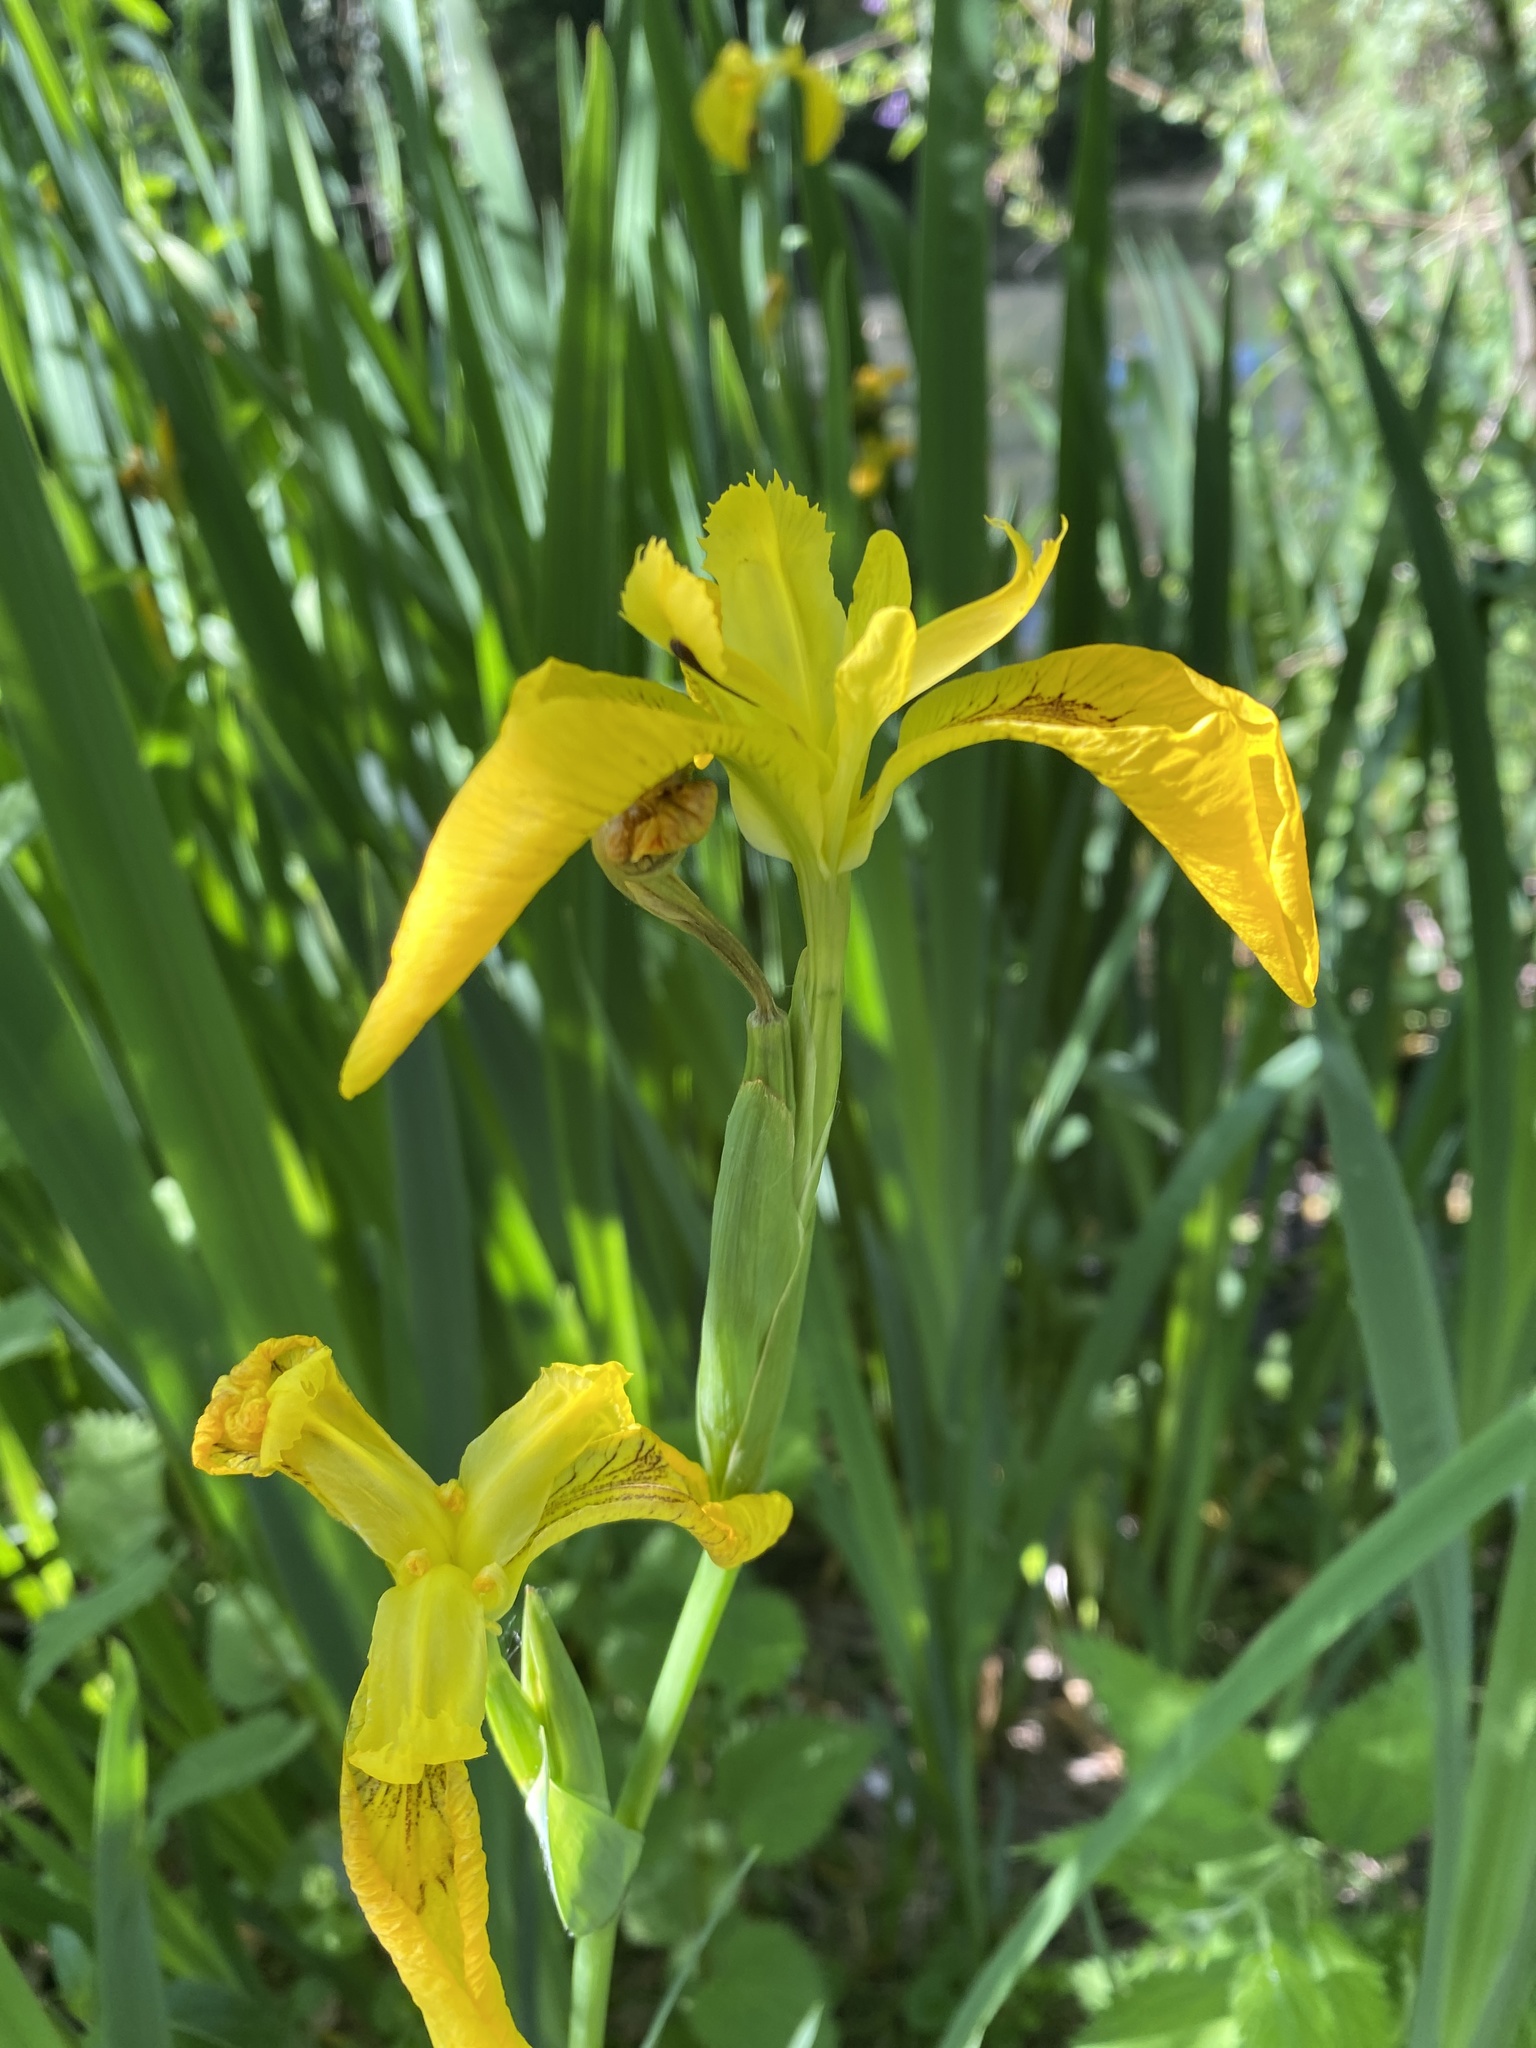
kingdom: Plantae
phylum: Tracheophyta
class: Liliopsida
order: Asparagales
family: Iridaceae
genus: Iris
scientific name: Iris pseudacorus
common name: Yellow flag
